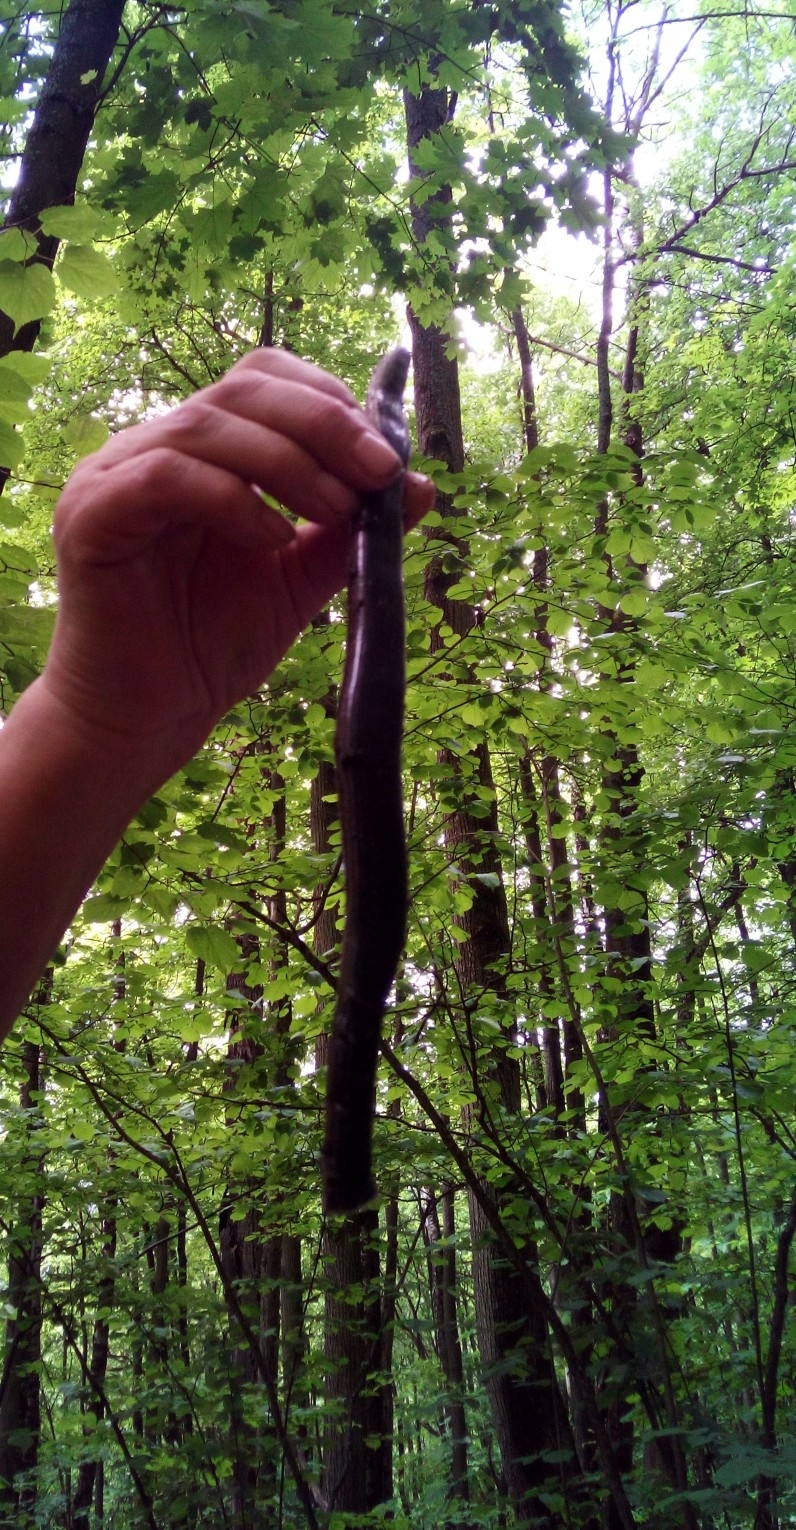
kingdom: Animalia
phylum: Chordata
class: Squamata
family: Anguidae
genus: Anguis
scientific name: Anguis colchica
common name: Slow worm
